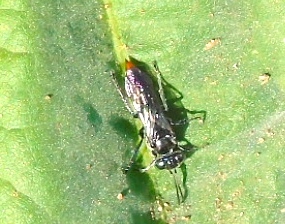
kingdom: Animalia
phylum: Arthropoda
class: Insecta
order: Hymenoptera
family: Crabronidae
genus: Tachysphex
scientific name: Tachysphex
